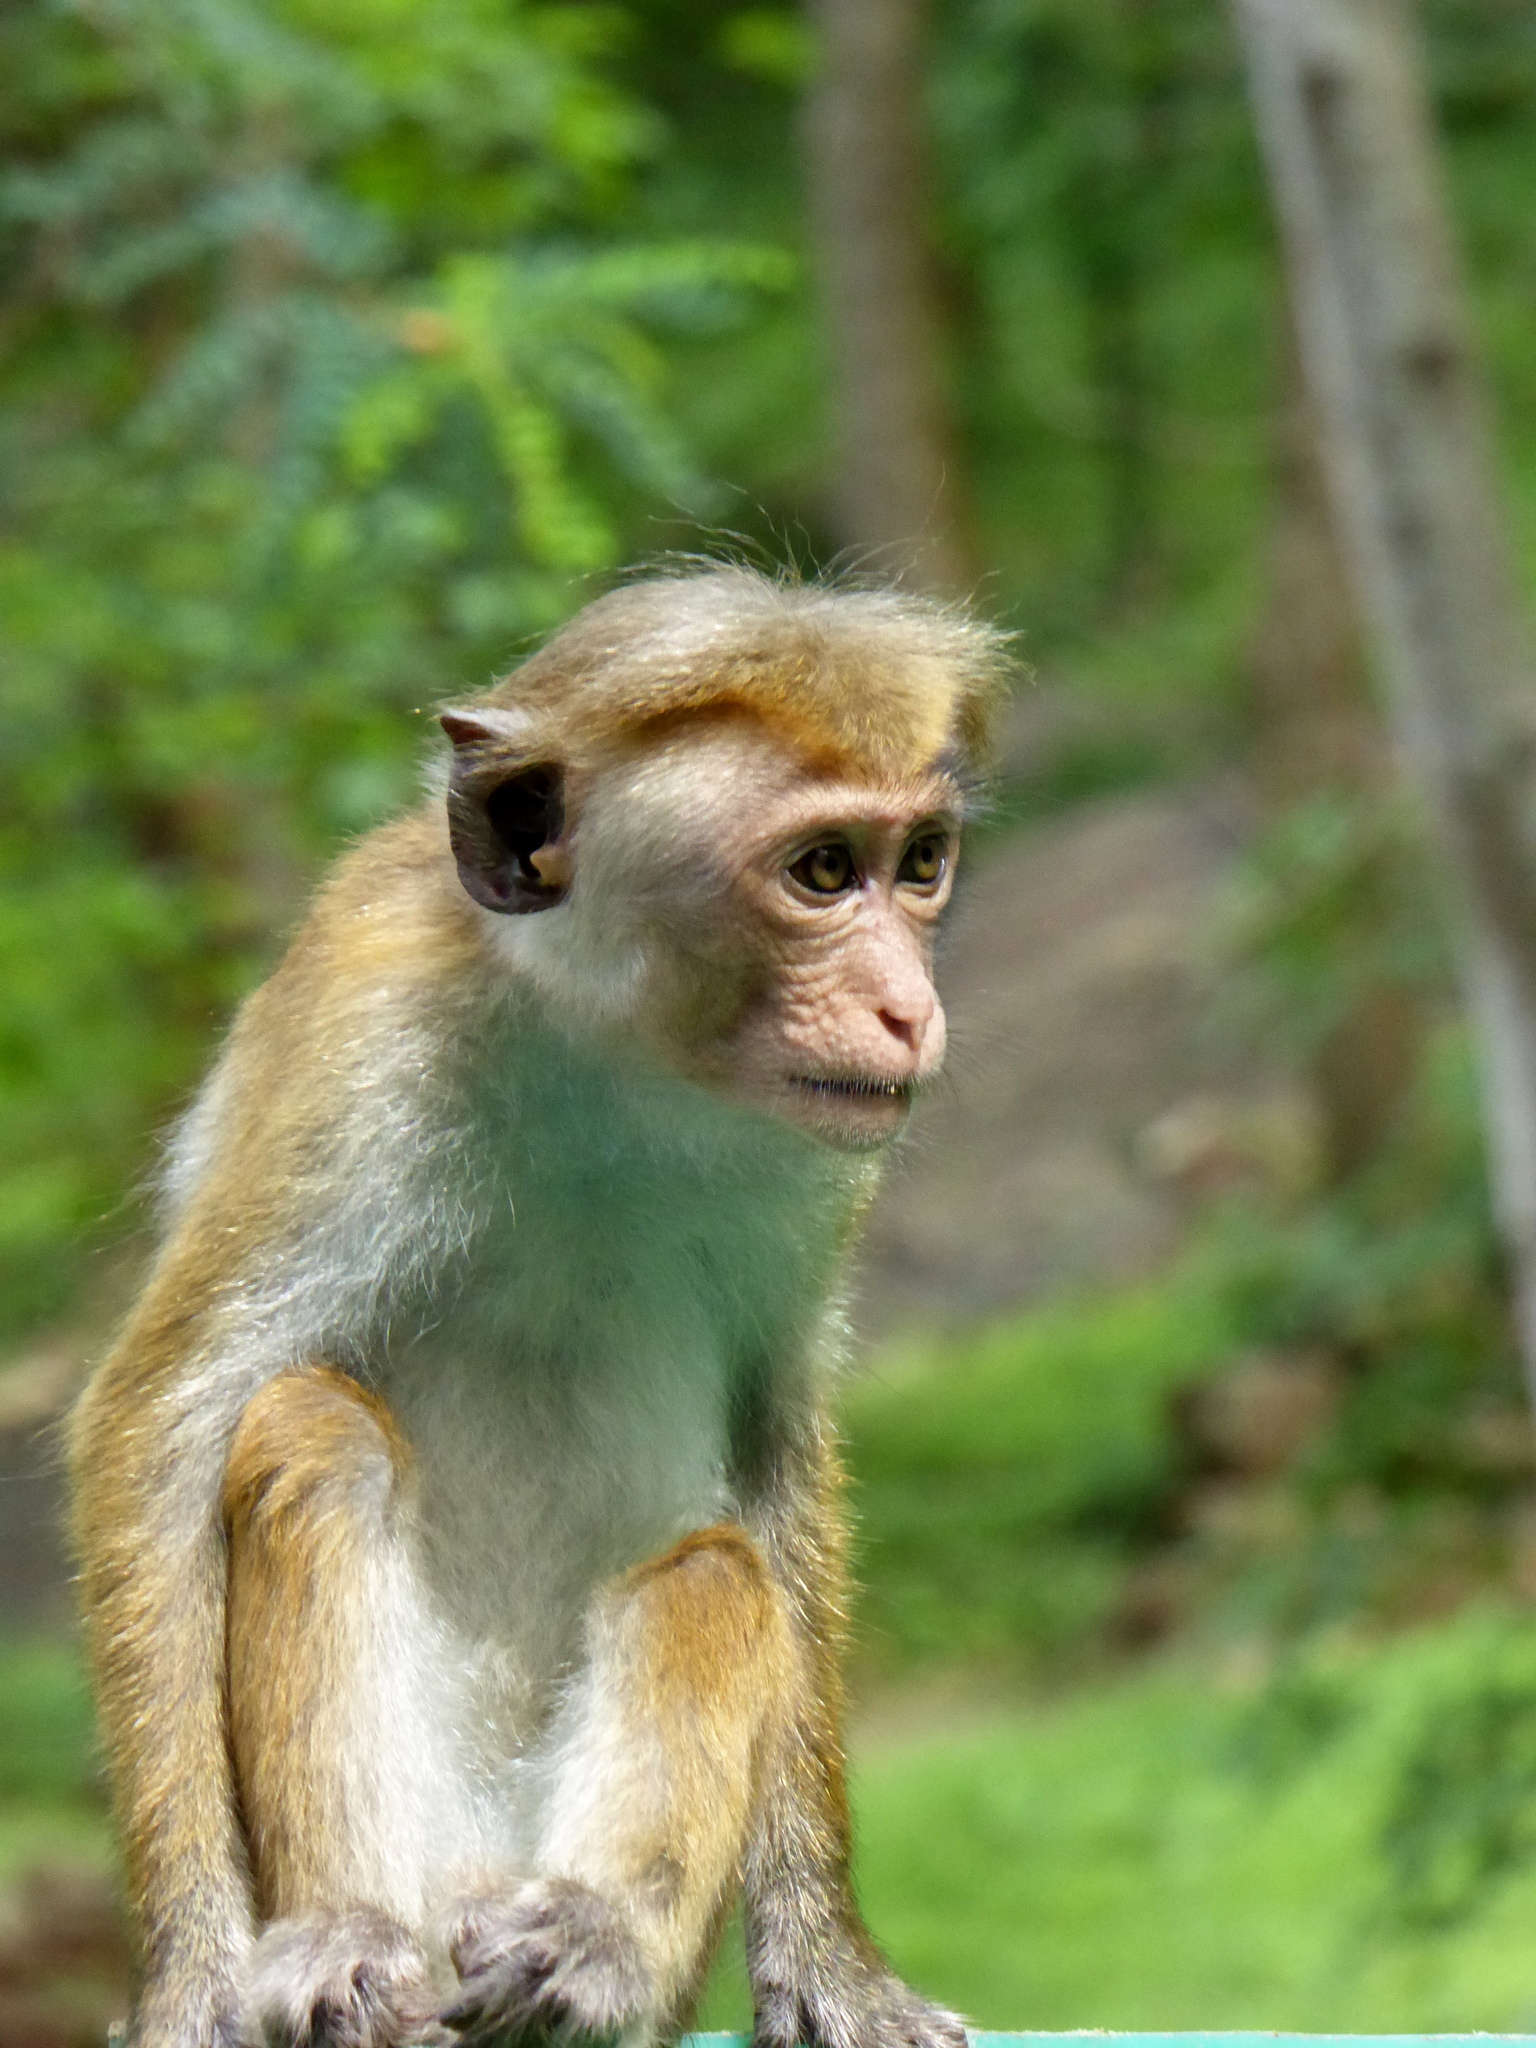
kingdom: Animalia
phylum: Chordata
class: Mammalia
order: Primates
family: Cercopithecidae
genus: Macaca
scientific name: Macaca sinica
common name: Toque macaque
